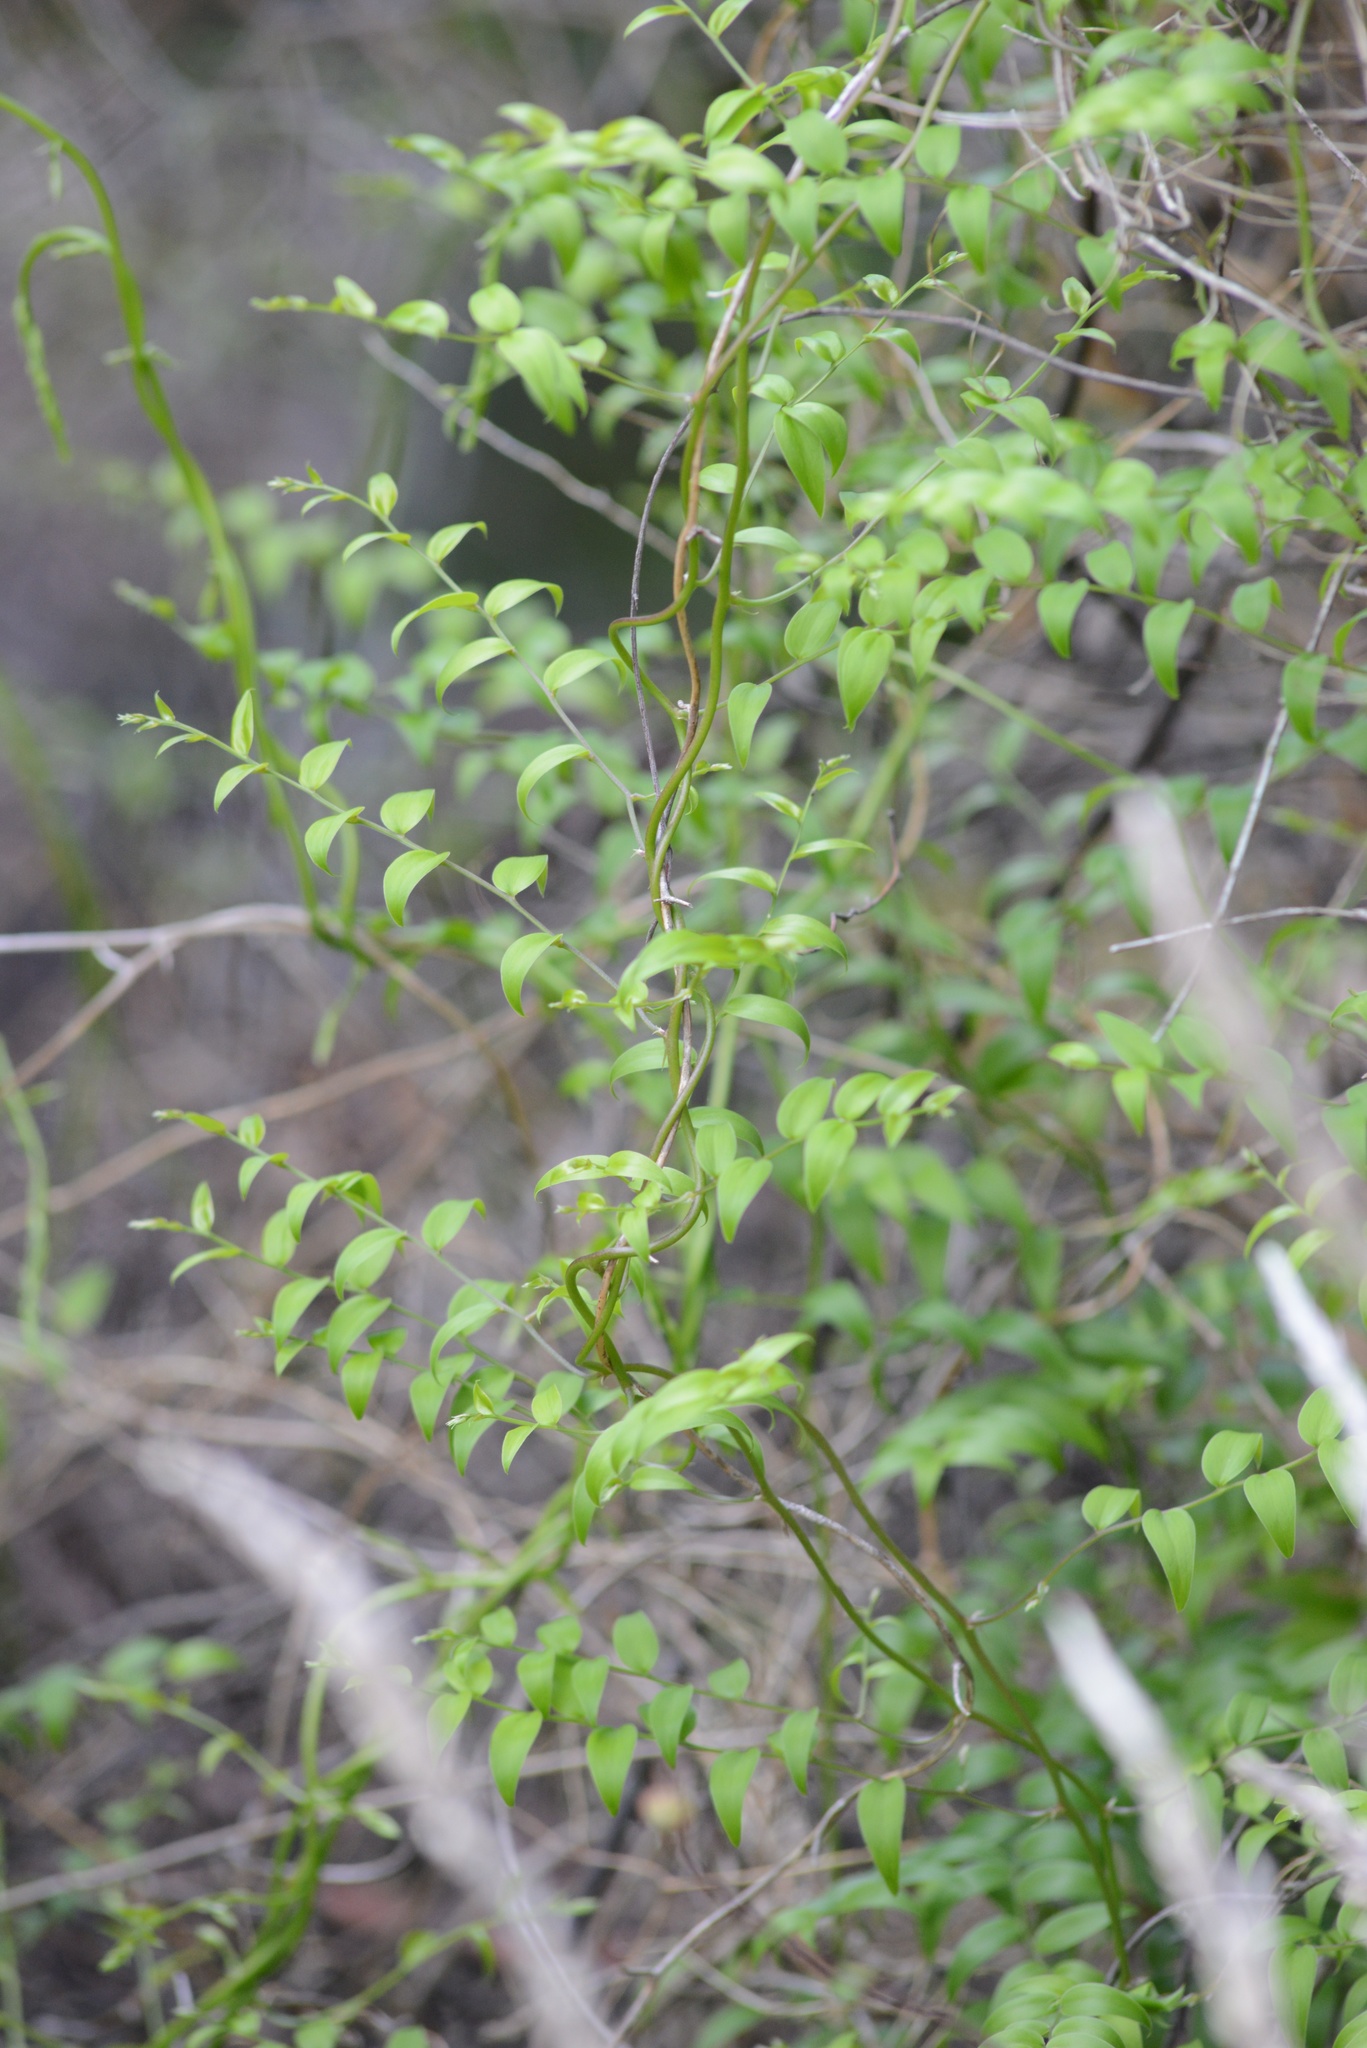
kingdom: Plantae
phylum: Tracheophyta
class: Liliopsida
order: Asparagales
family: Asparagaceae
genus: Asparagus
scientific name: Asparagus asparagoides
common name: African asparagus fern
